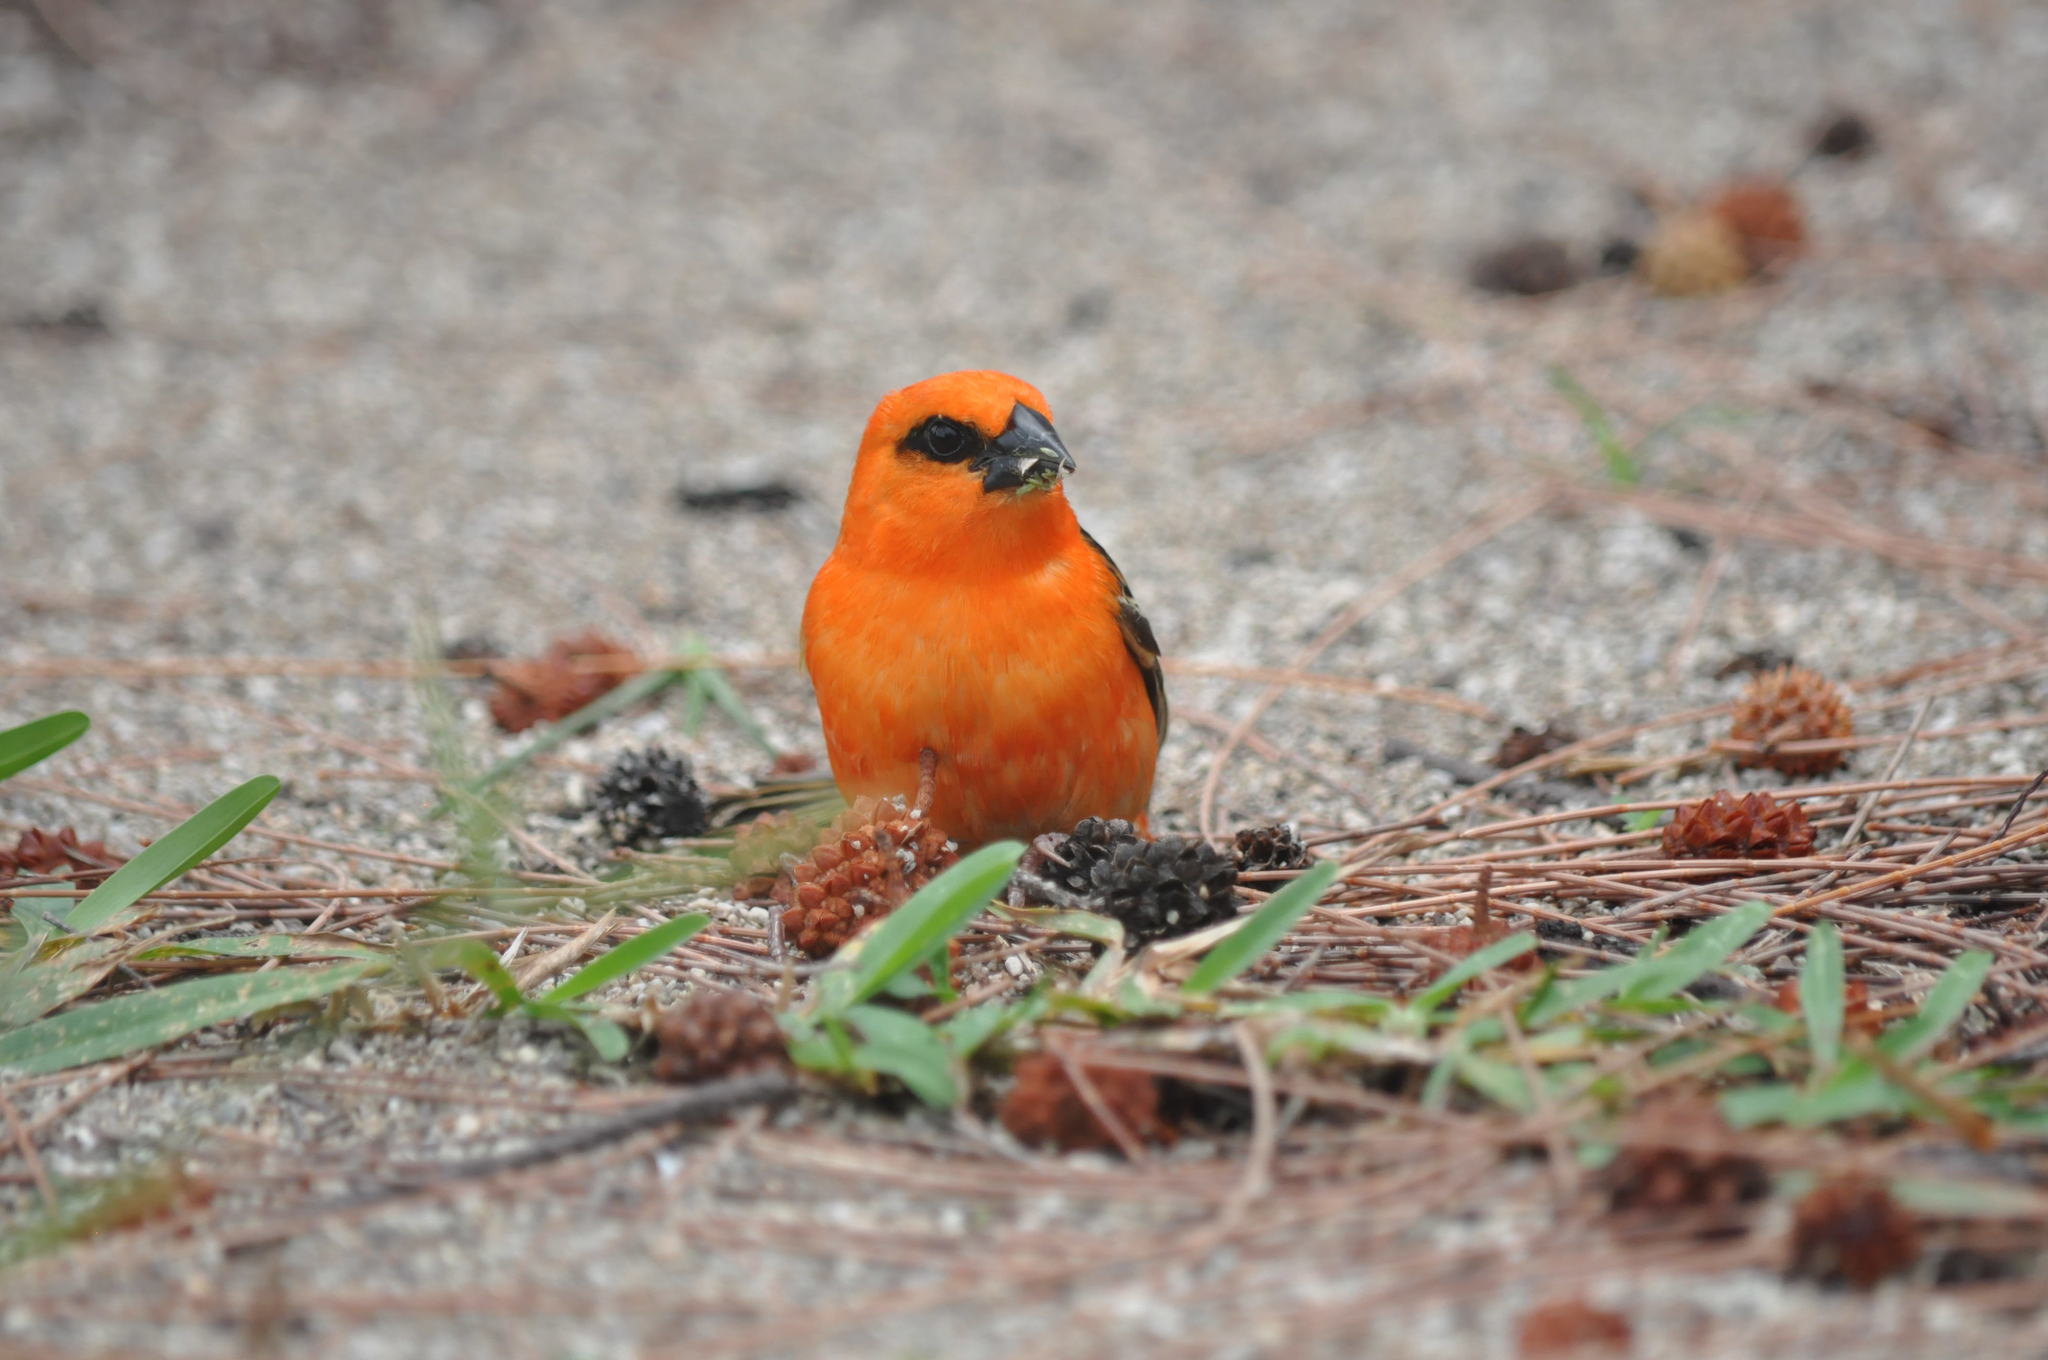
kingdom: Animalia
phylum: Chordata
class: Aves
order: Passeriformes
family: Ploceidae
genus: Foudia
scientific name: Foudia madagascariensis
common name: Red fody
